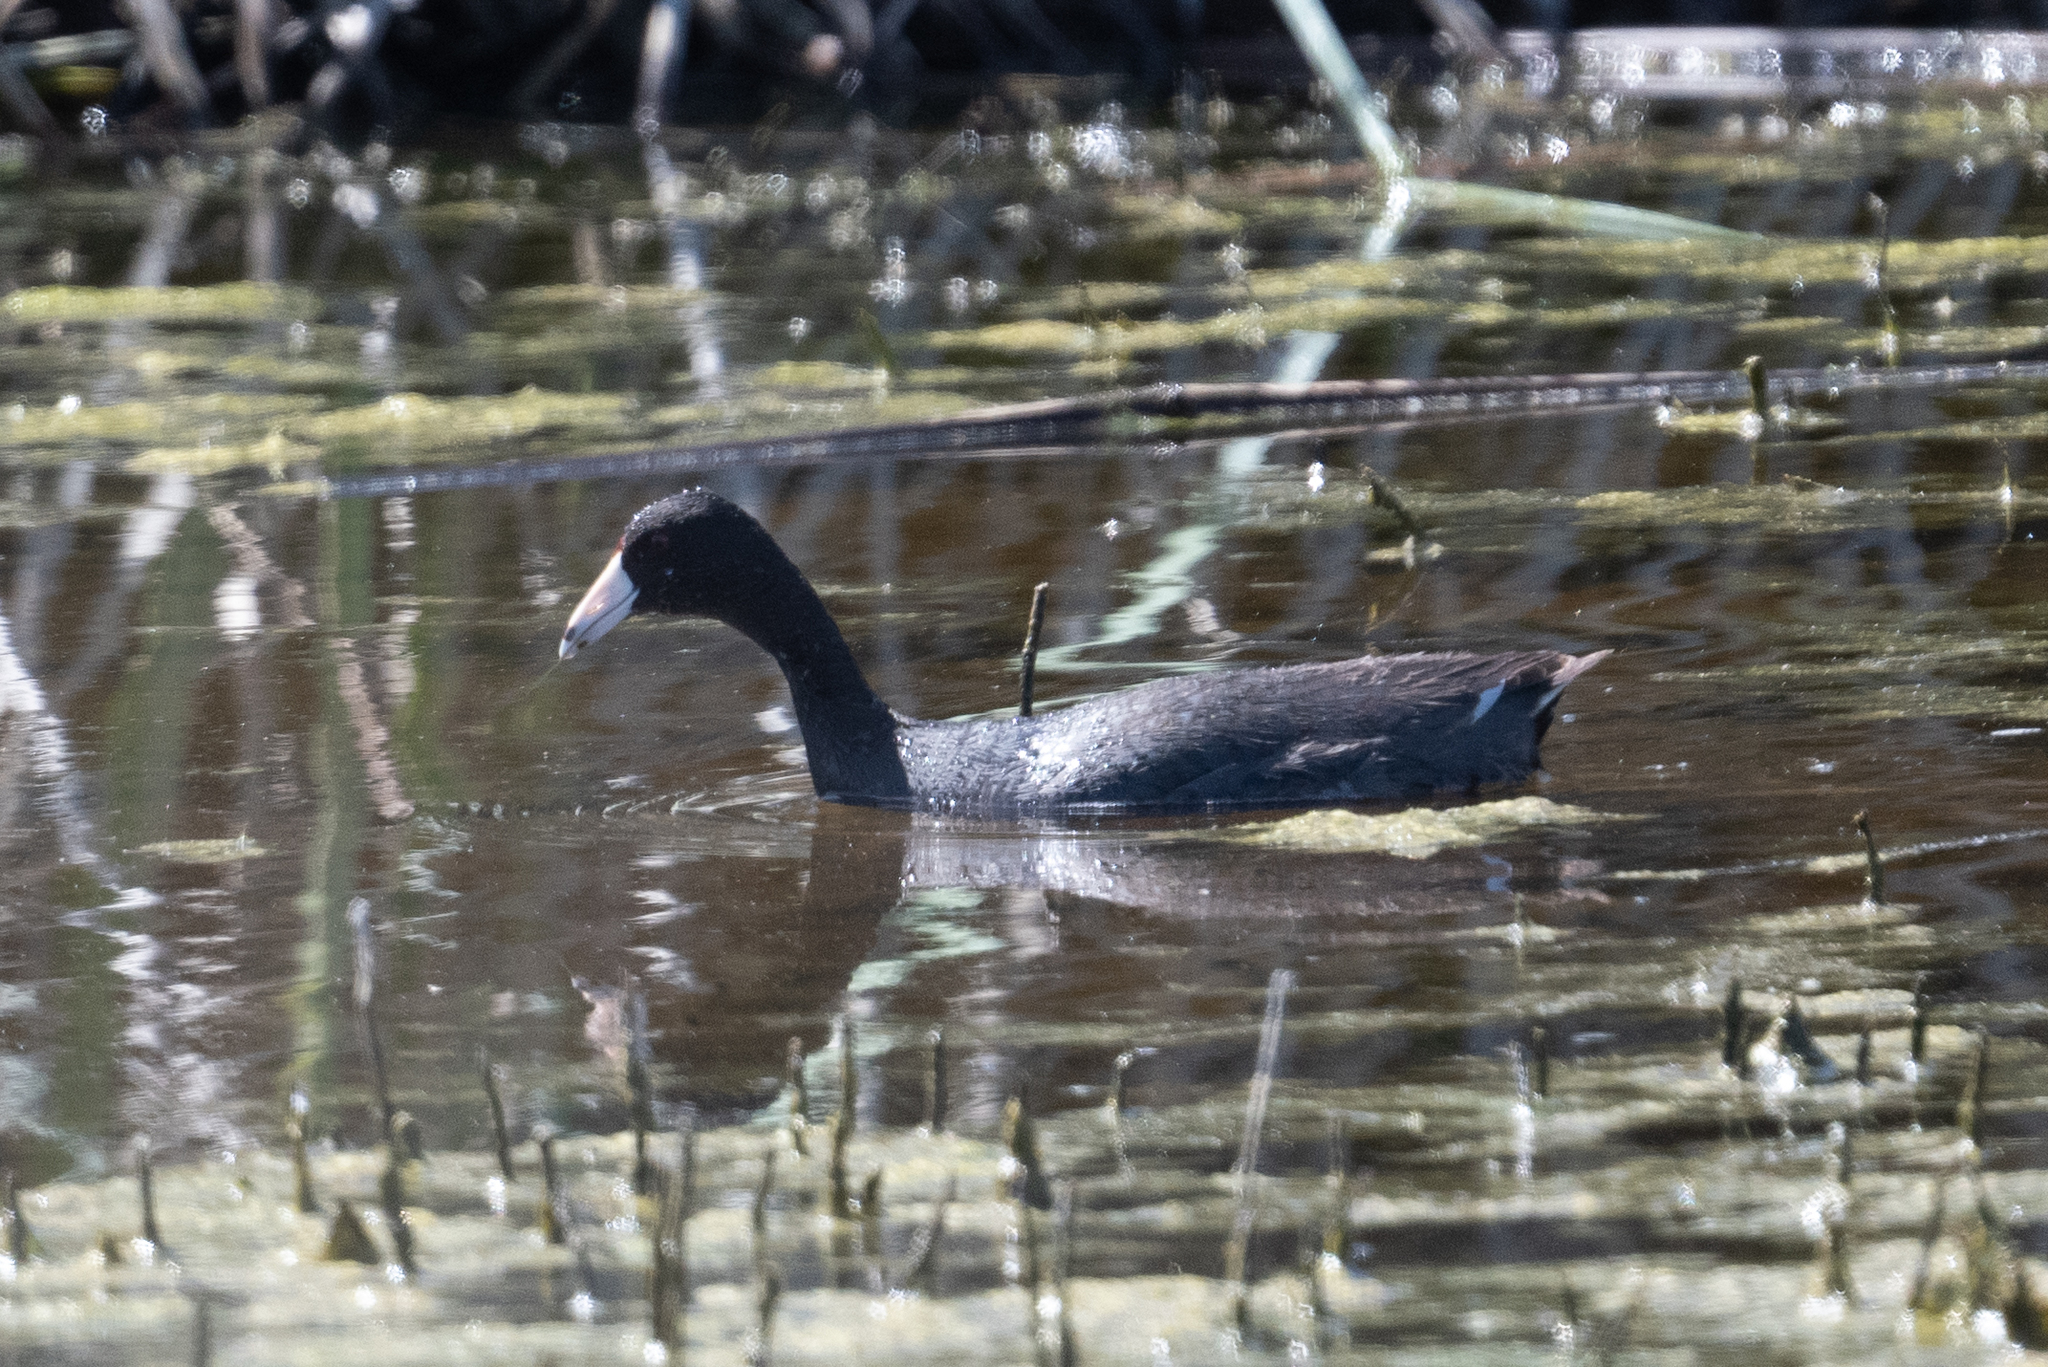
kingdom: Animalia
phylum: Chordata
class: Aves
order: Gruiformes
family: Rallidae
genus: Fulica
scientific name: Fulica americana
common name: American coot
